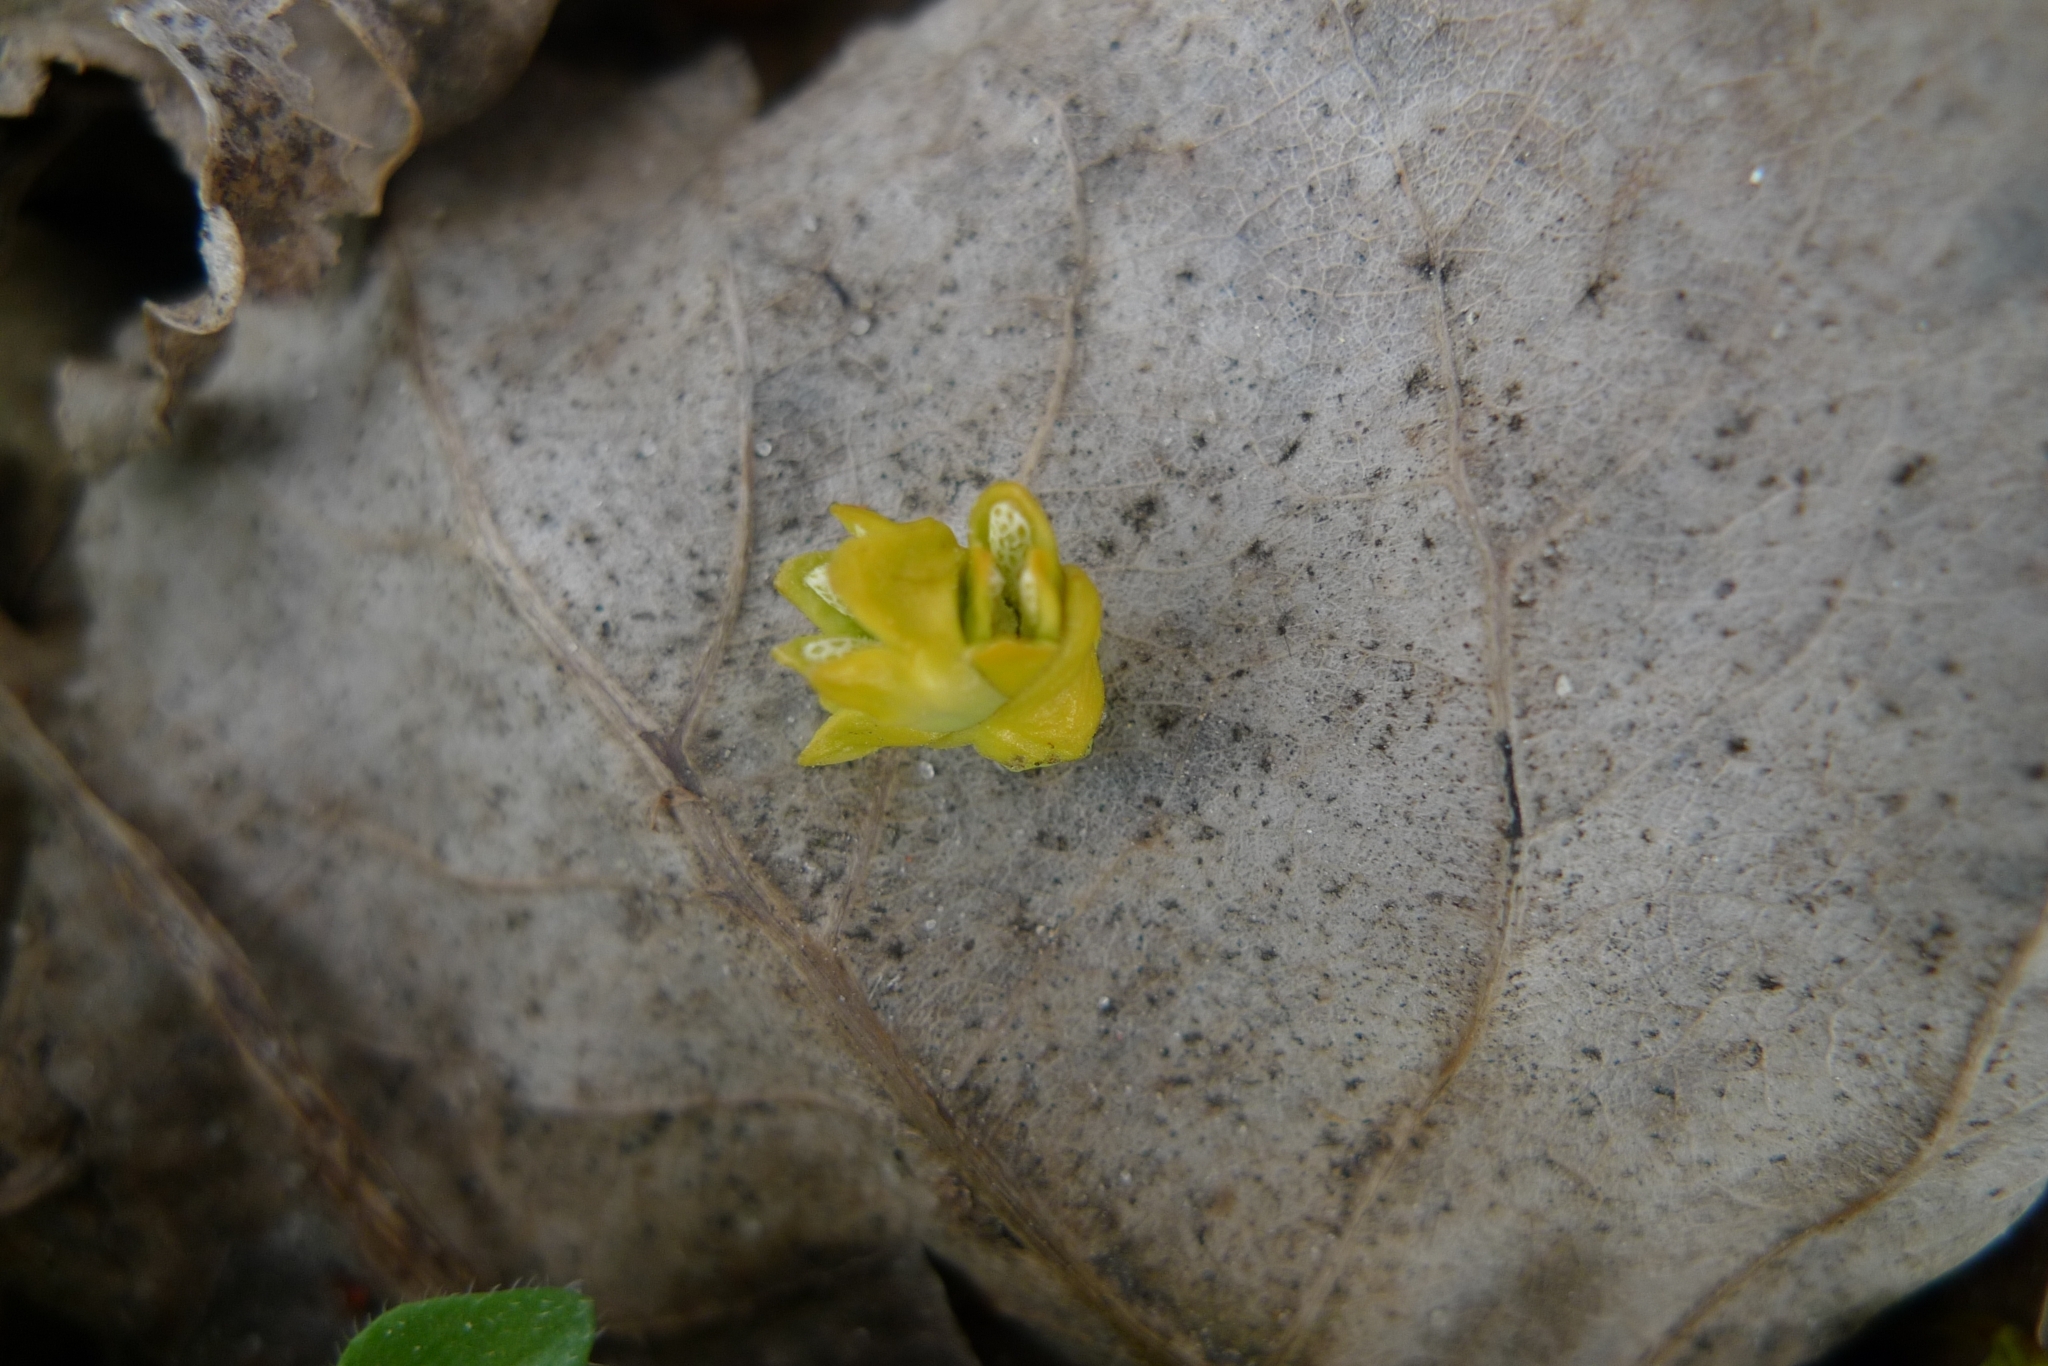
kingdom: Plantae
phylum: Tracheophyta
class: Magnoliopsida
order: Santalales
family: Viscaceae
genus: Viscum
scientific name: Viscum album
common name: Mistletoe
